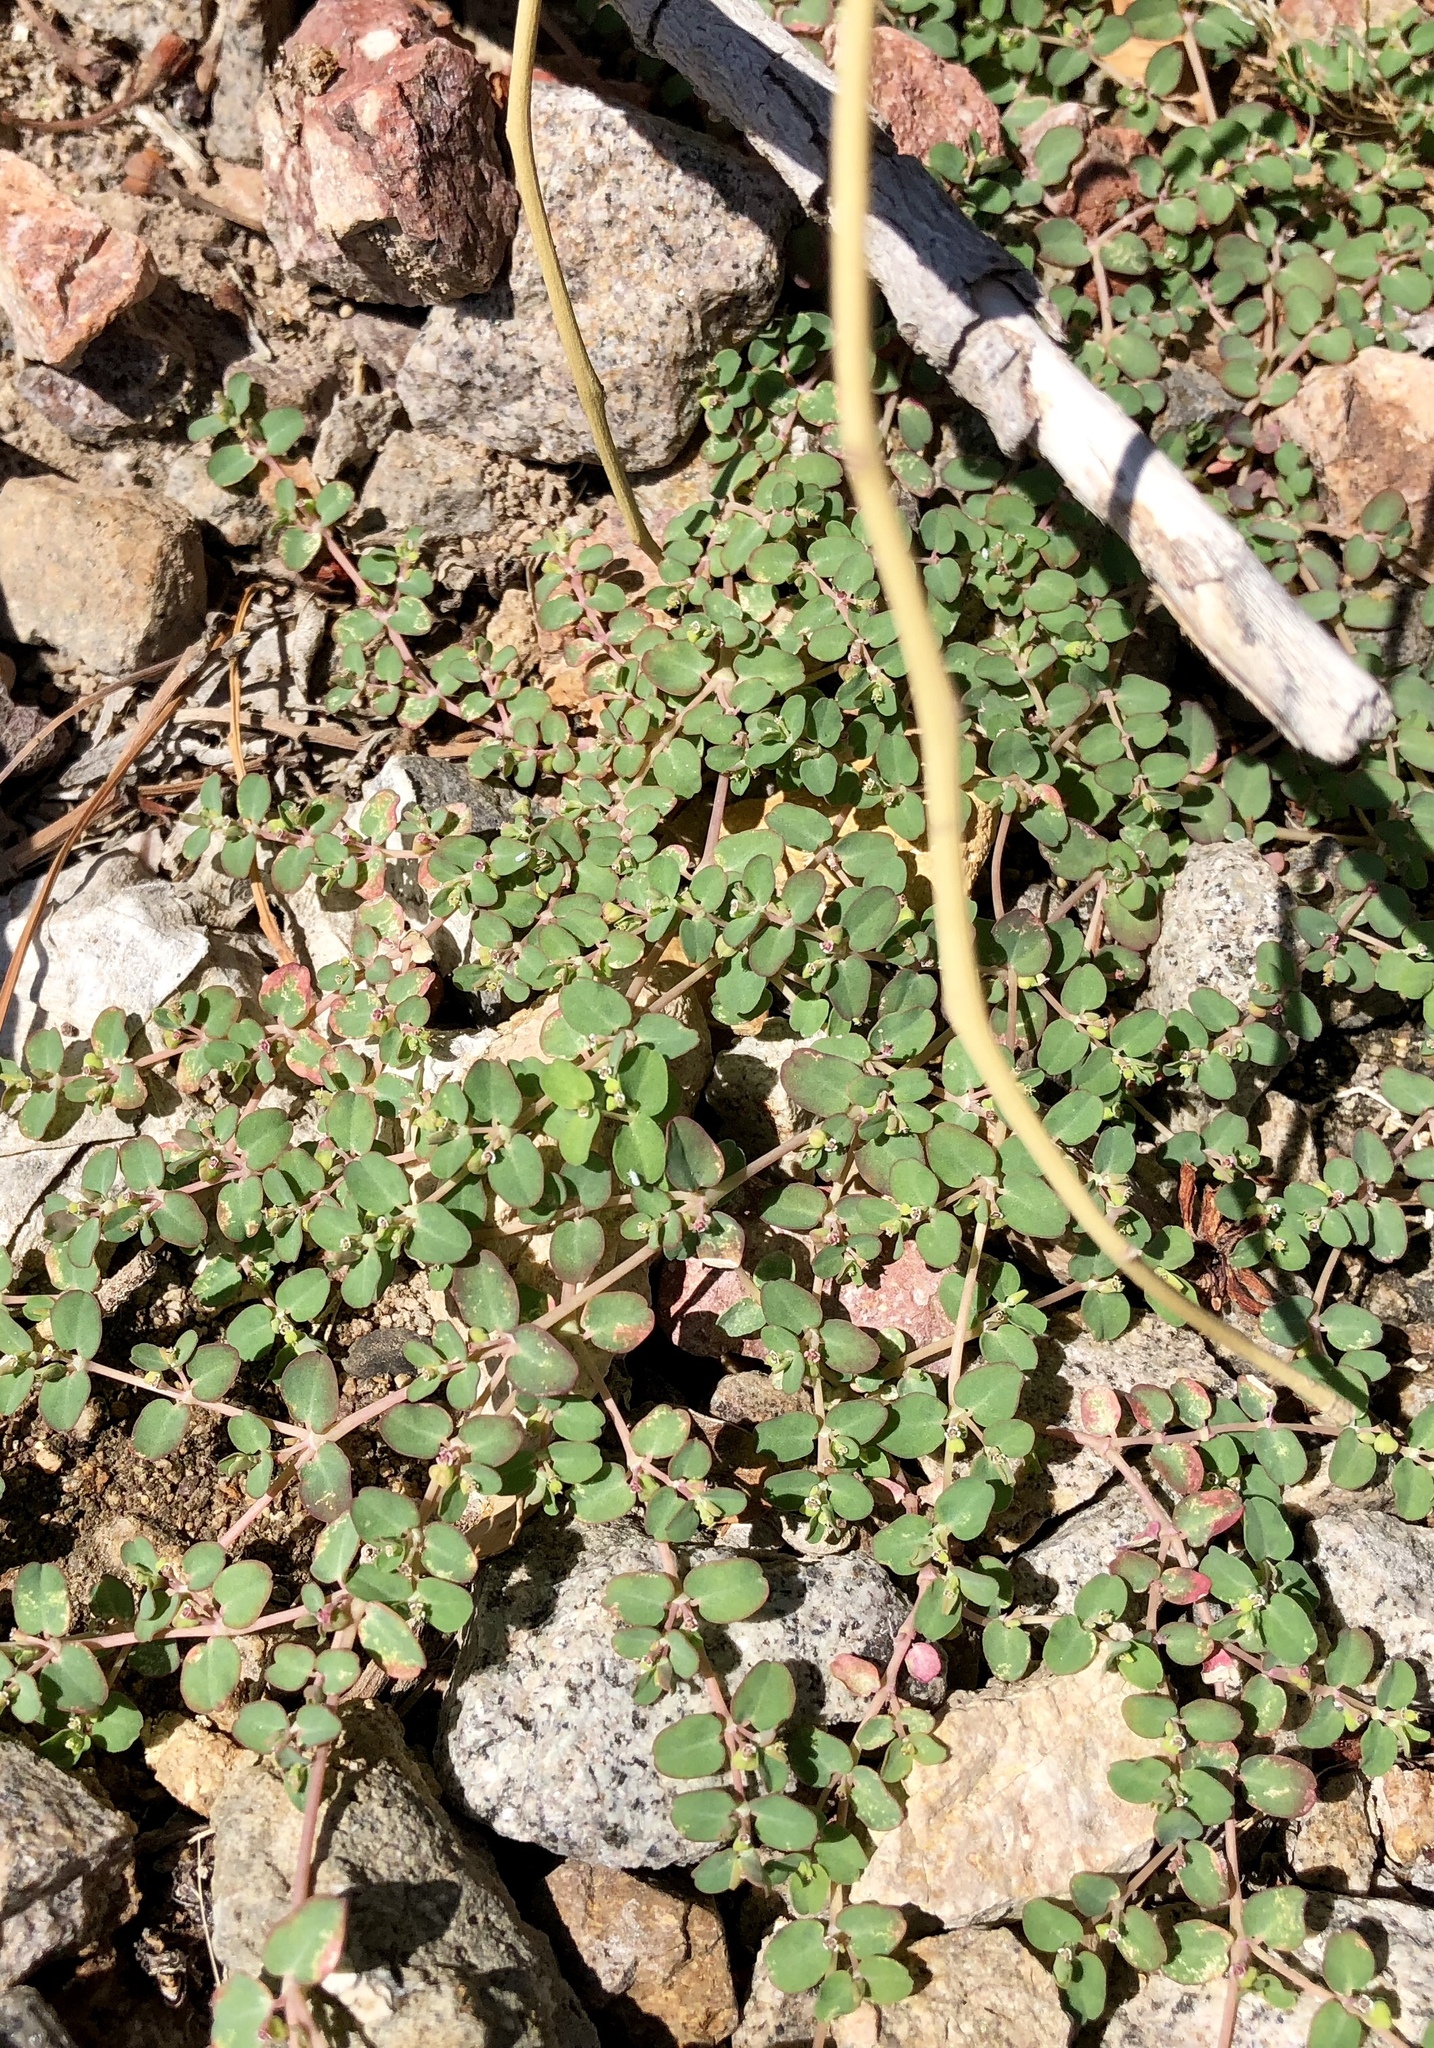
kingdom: Plantae
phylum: Tracheophyta
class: Magnoliopsida
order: Malpighiales
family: Euphorbiaceae
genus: Euphorbia
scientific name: Euphorbia serpens
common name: Matted sandmat
